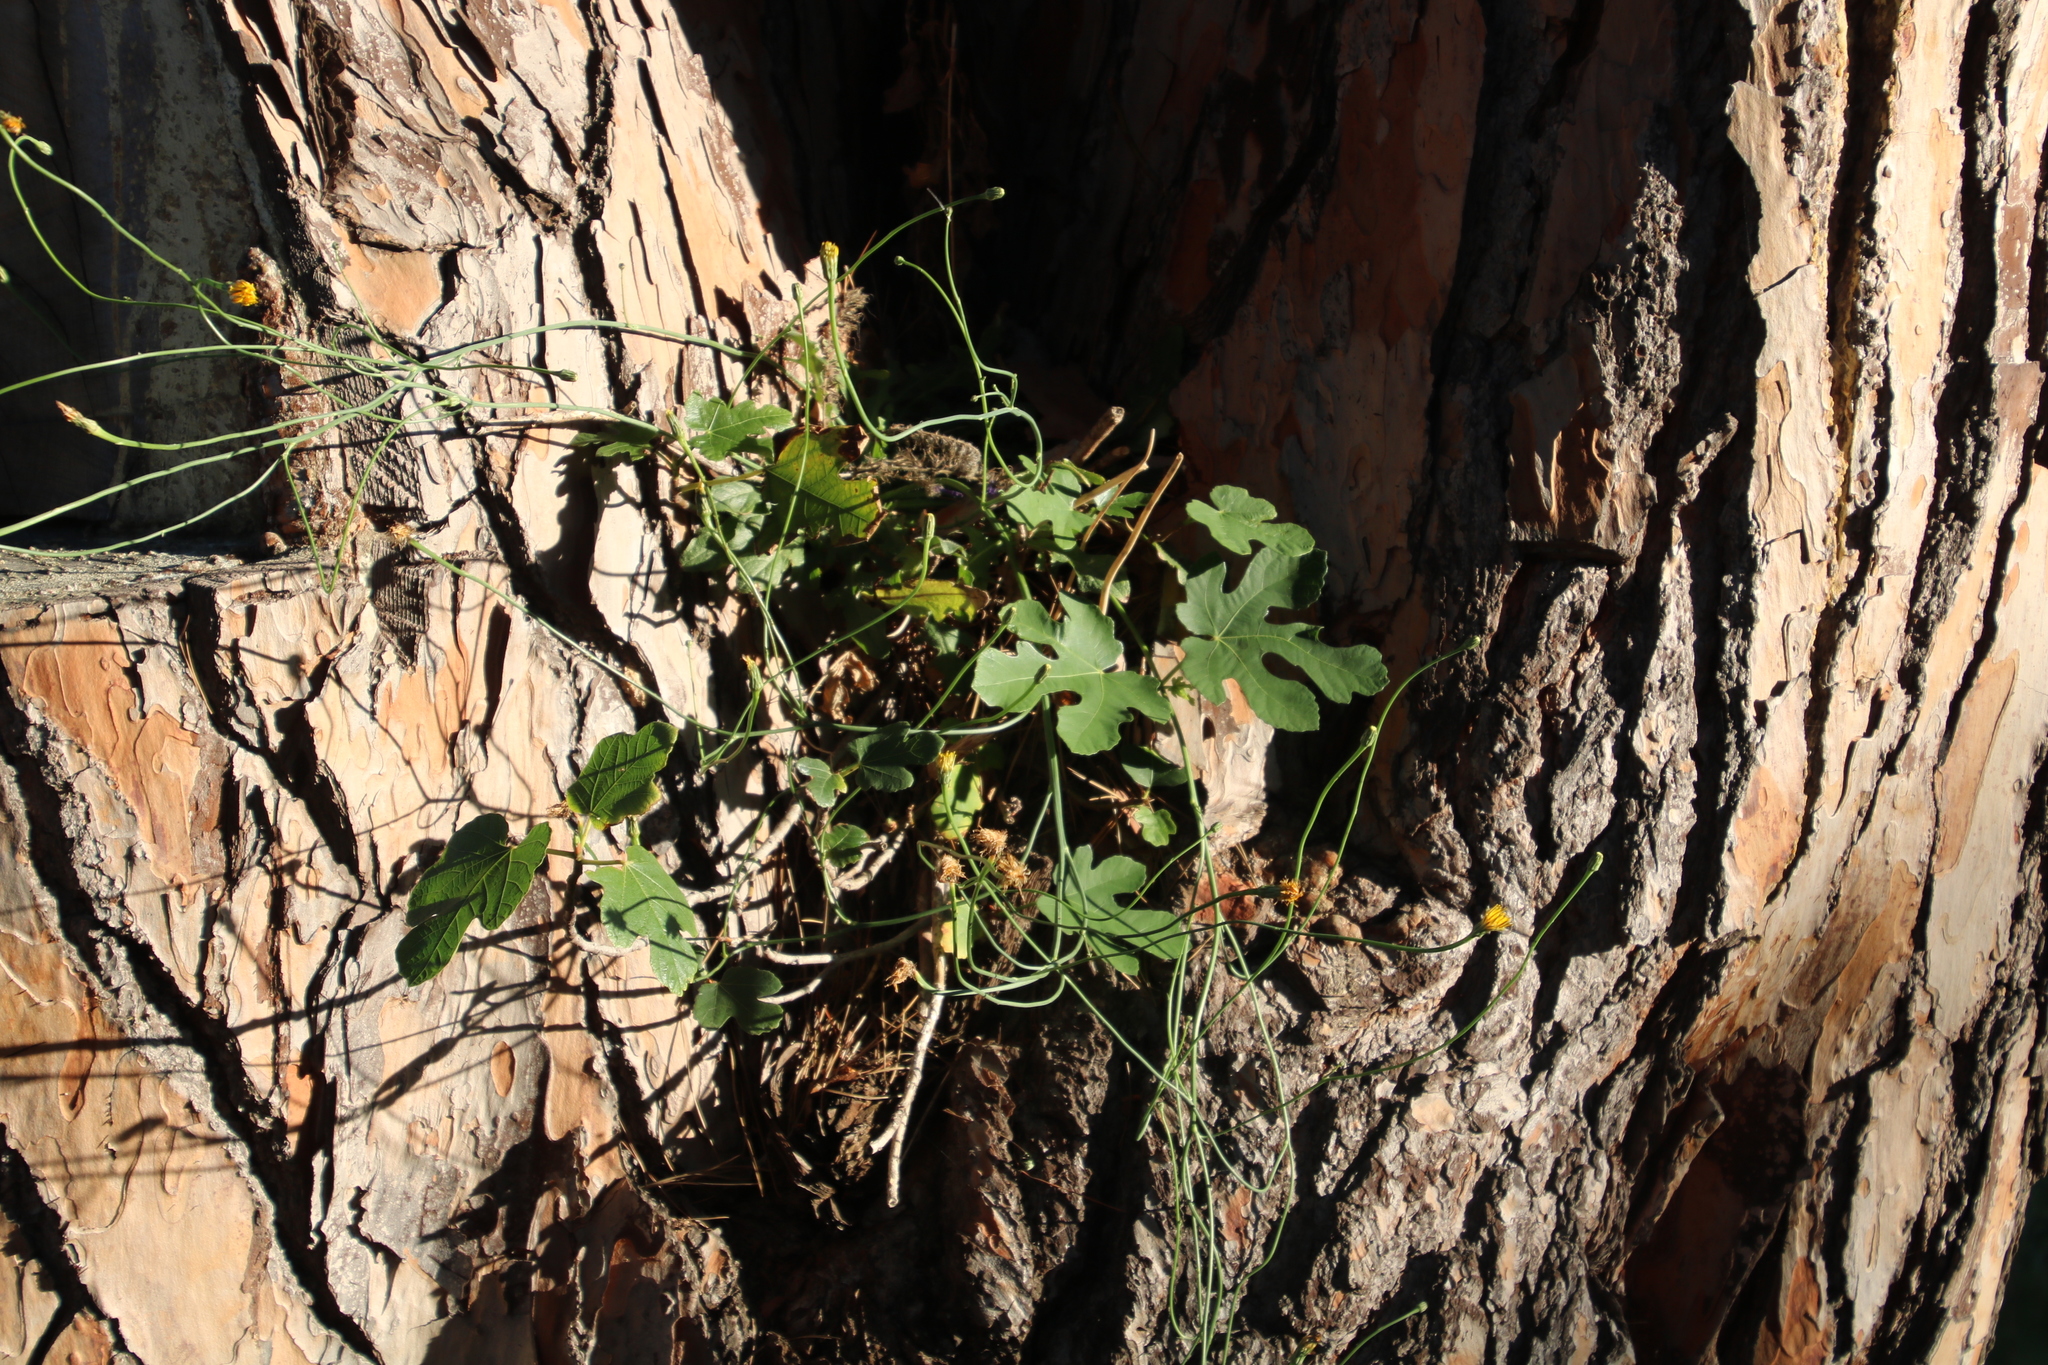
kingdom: Plantae
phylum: Tracheophyta
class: Magnoliopsida
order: Rosales
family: Moraceae
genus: Ficus
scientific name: Ficus carica
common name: Fig
